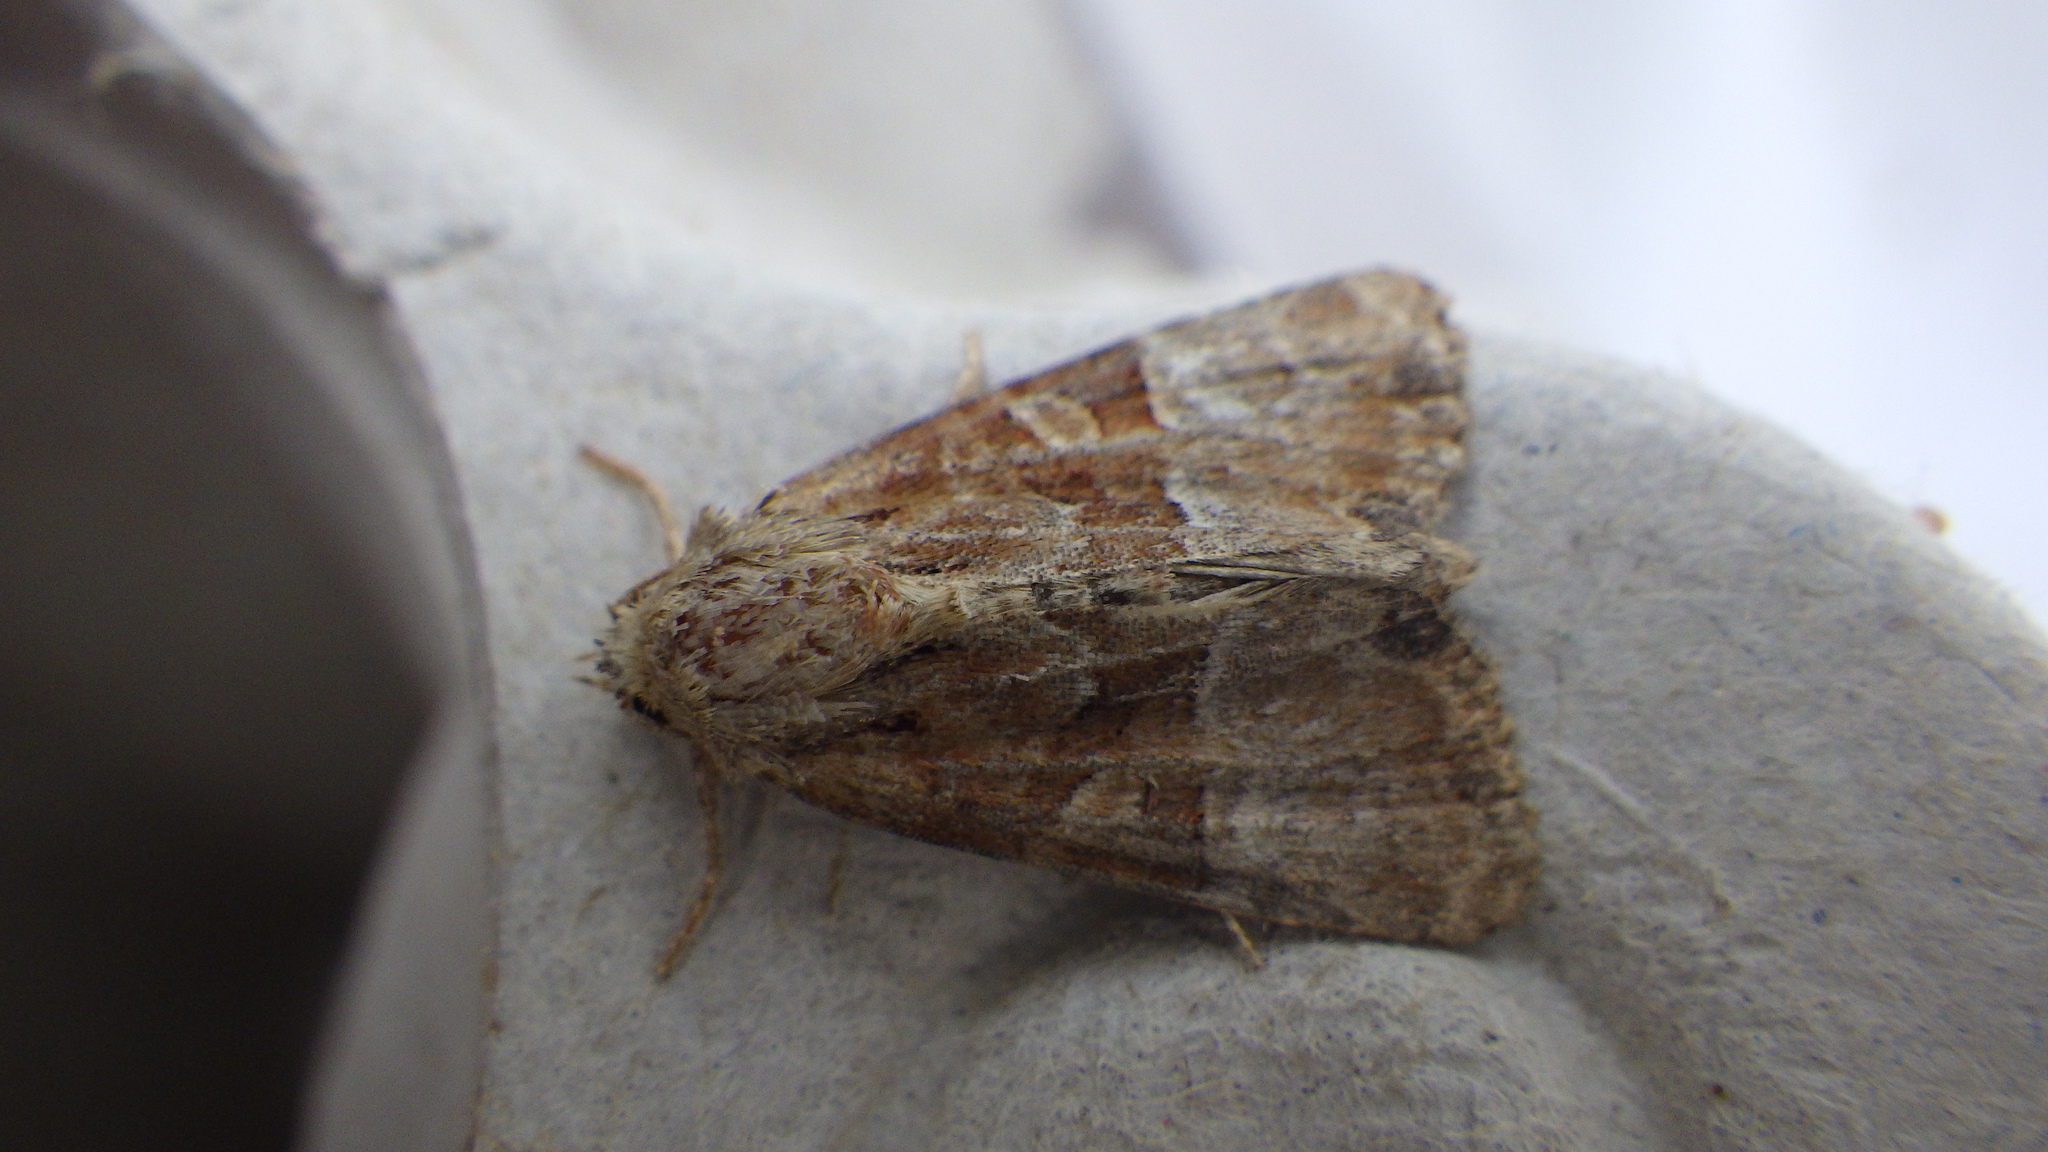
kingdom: Animalia
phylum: Arthropoda
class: Insecta
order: Lepidoptera
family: Noctuidae
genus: Mesoligia
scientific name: Mesoligia furuncula
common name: Cloaked minor
